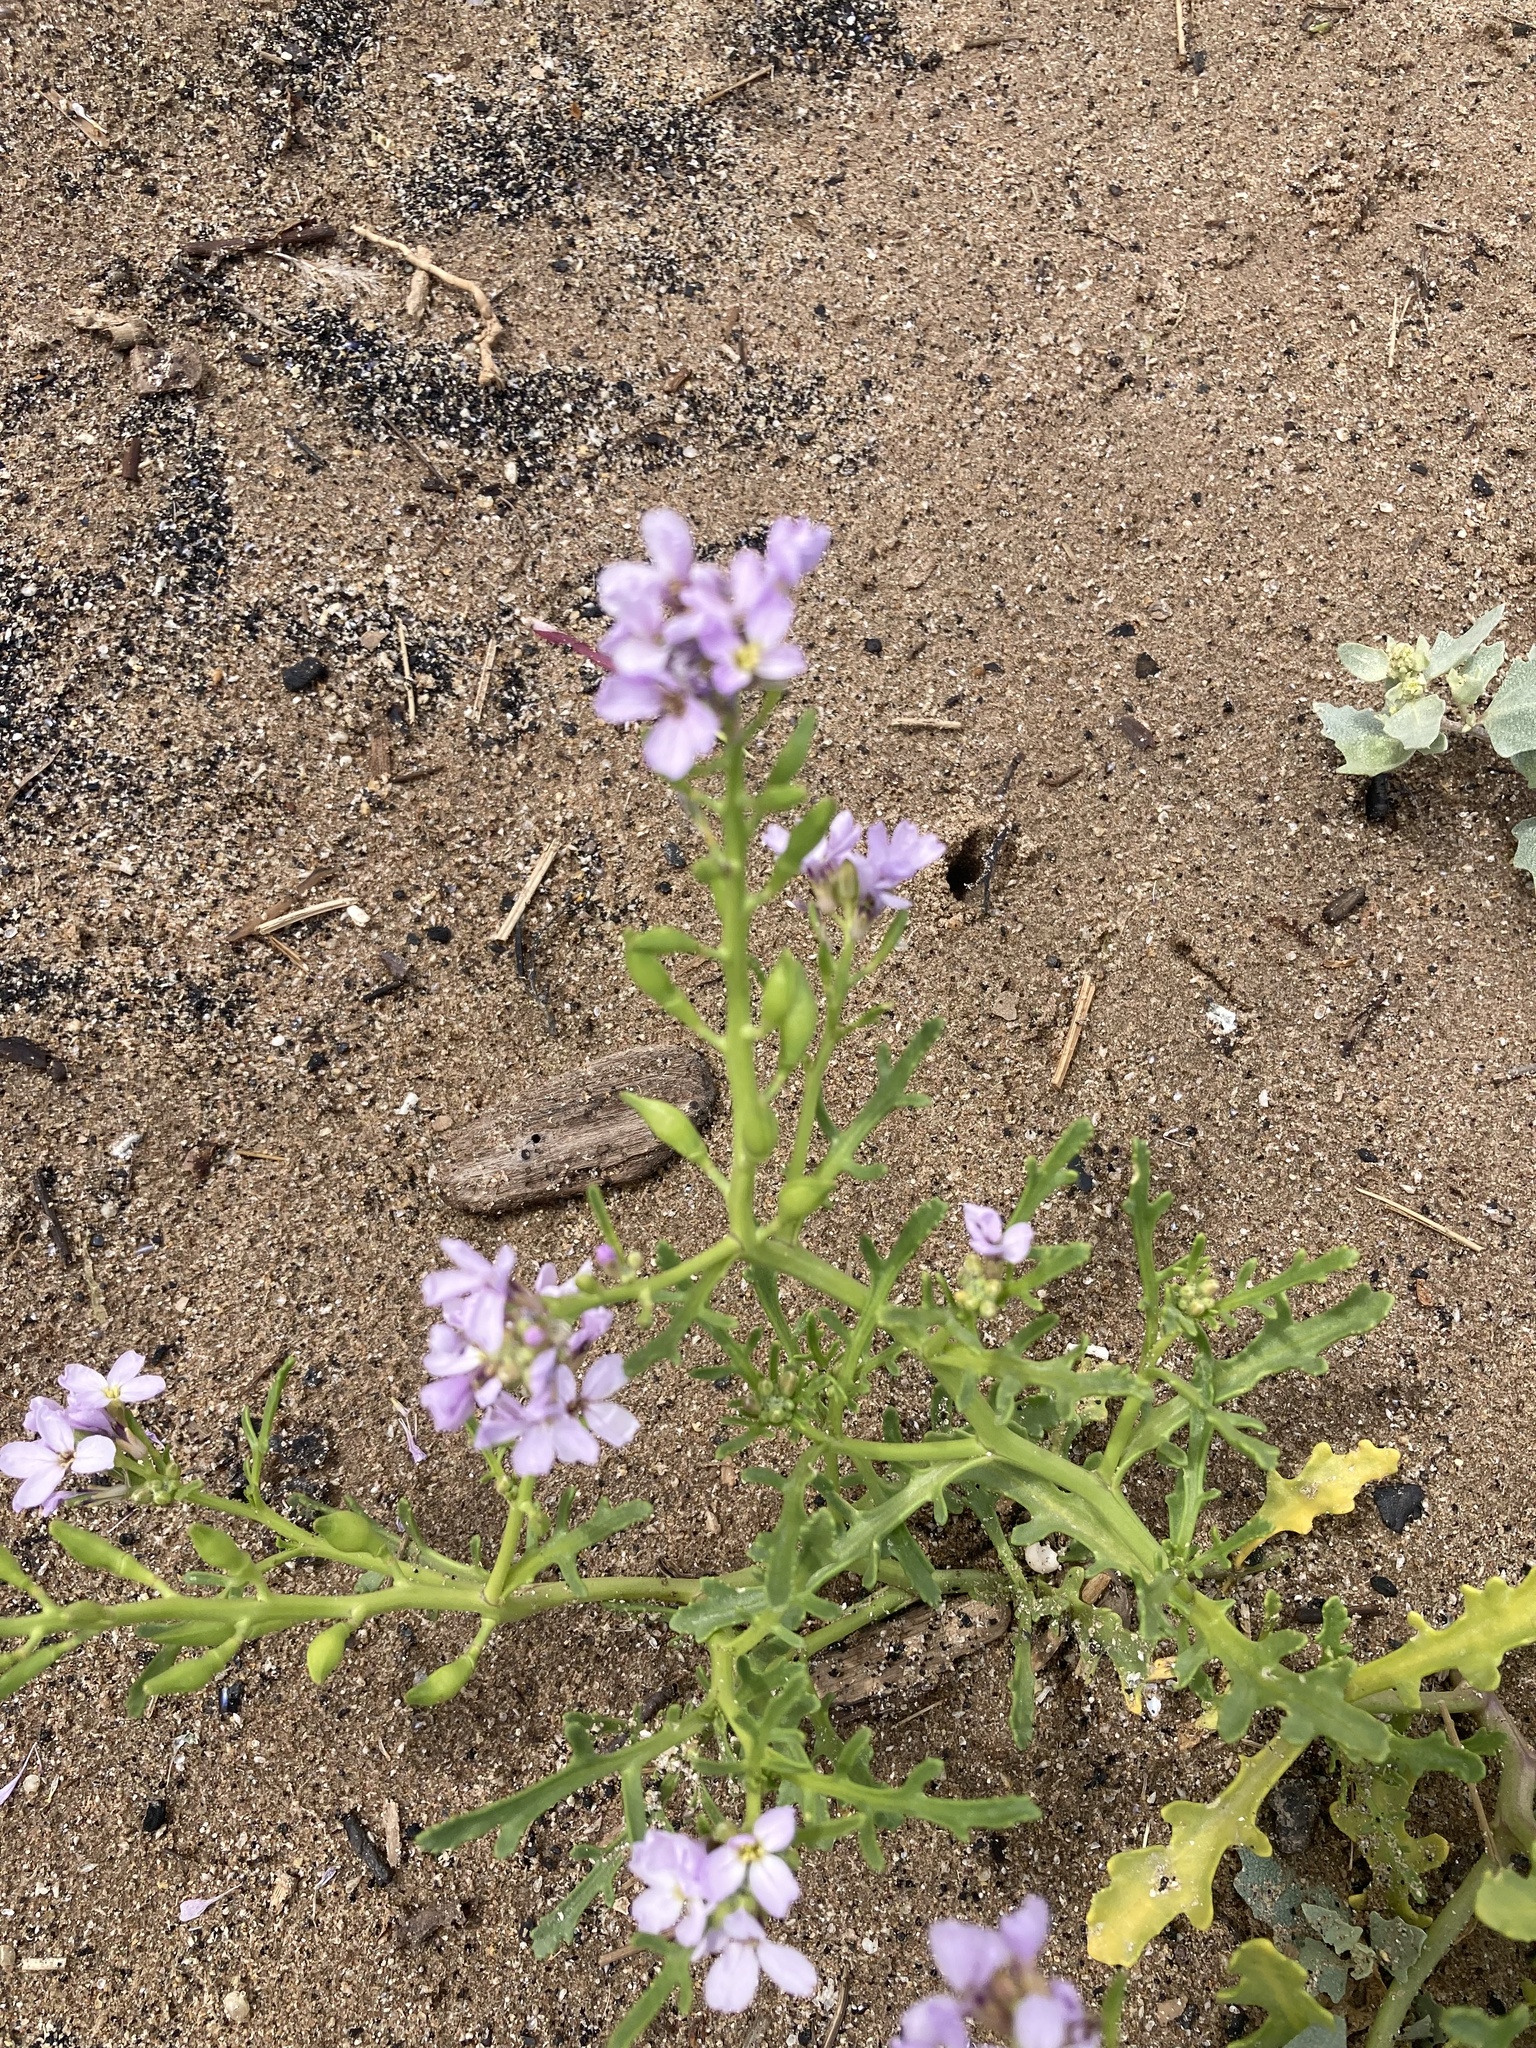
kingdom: Plantae
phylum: Tracheophyta
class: Magnoliopsida
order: Brassicales
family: Brassicaceae
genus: Cakile
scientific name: Cakile maritima
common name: Sea rocket
